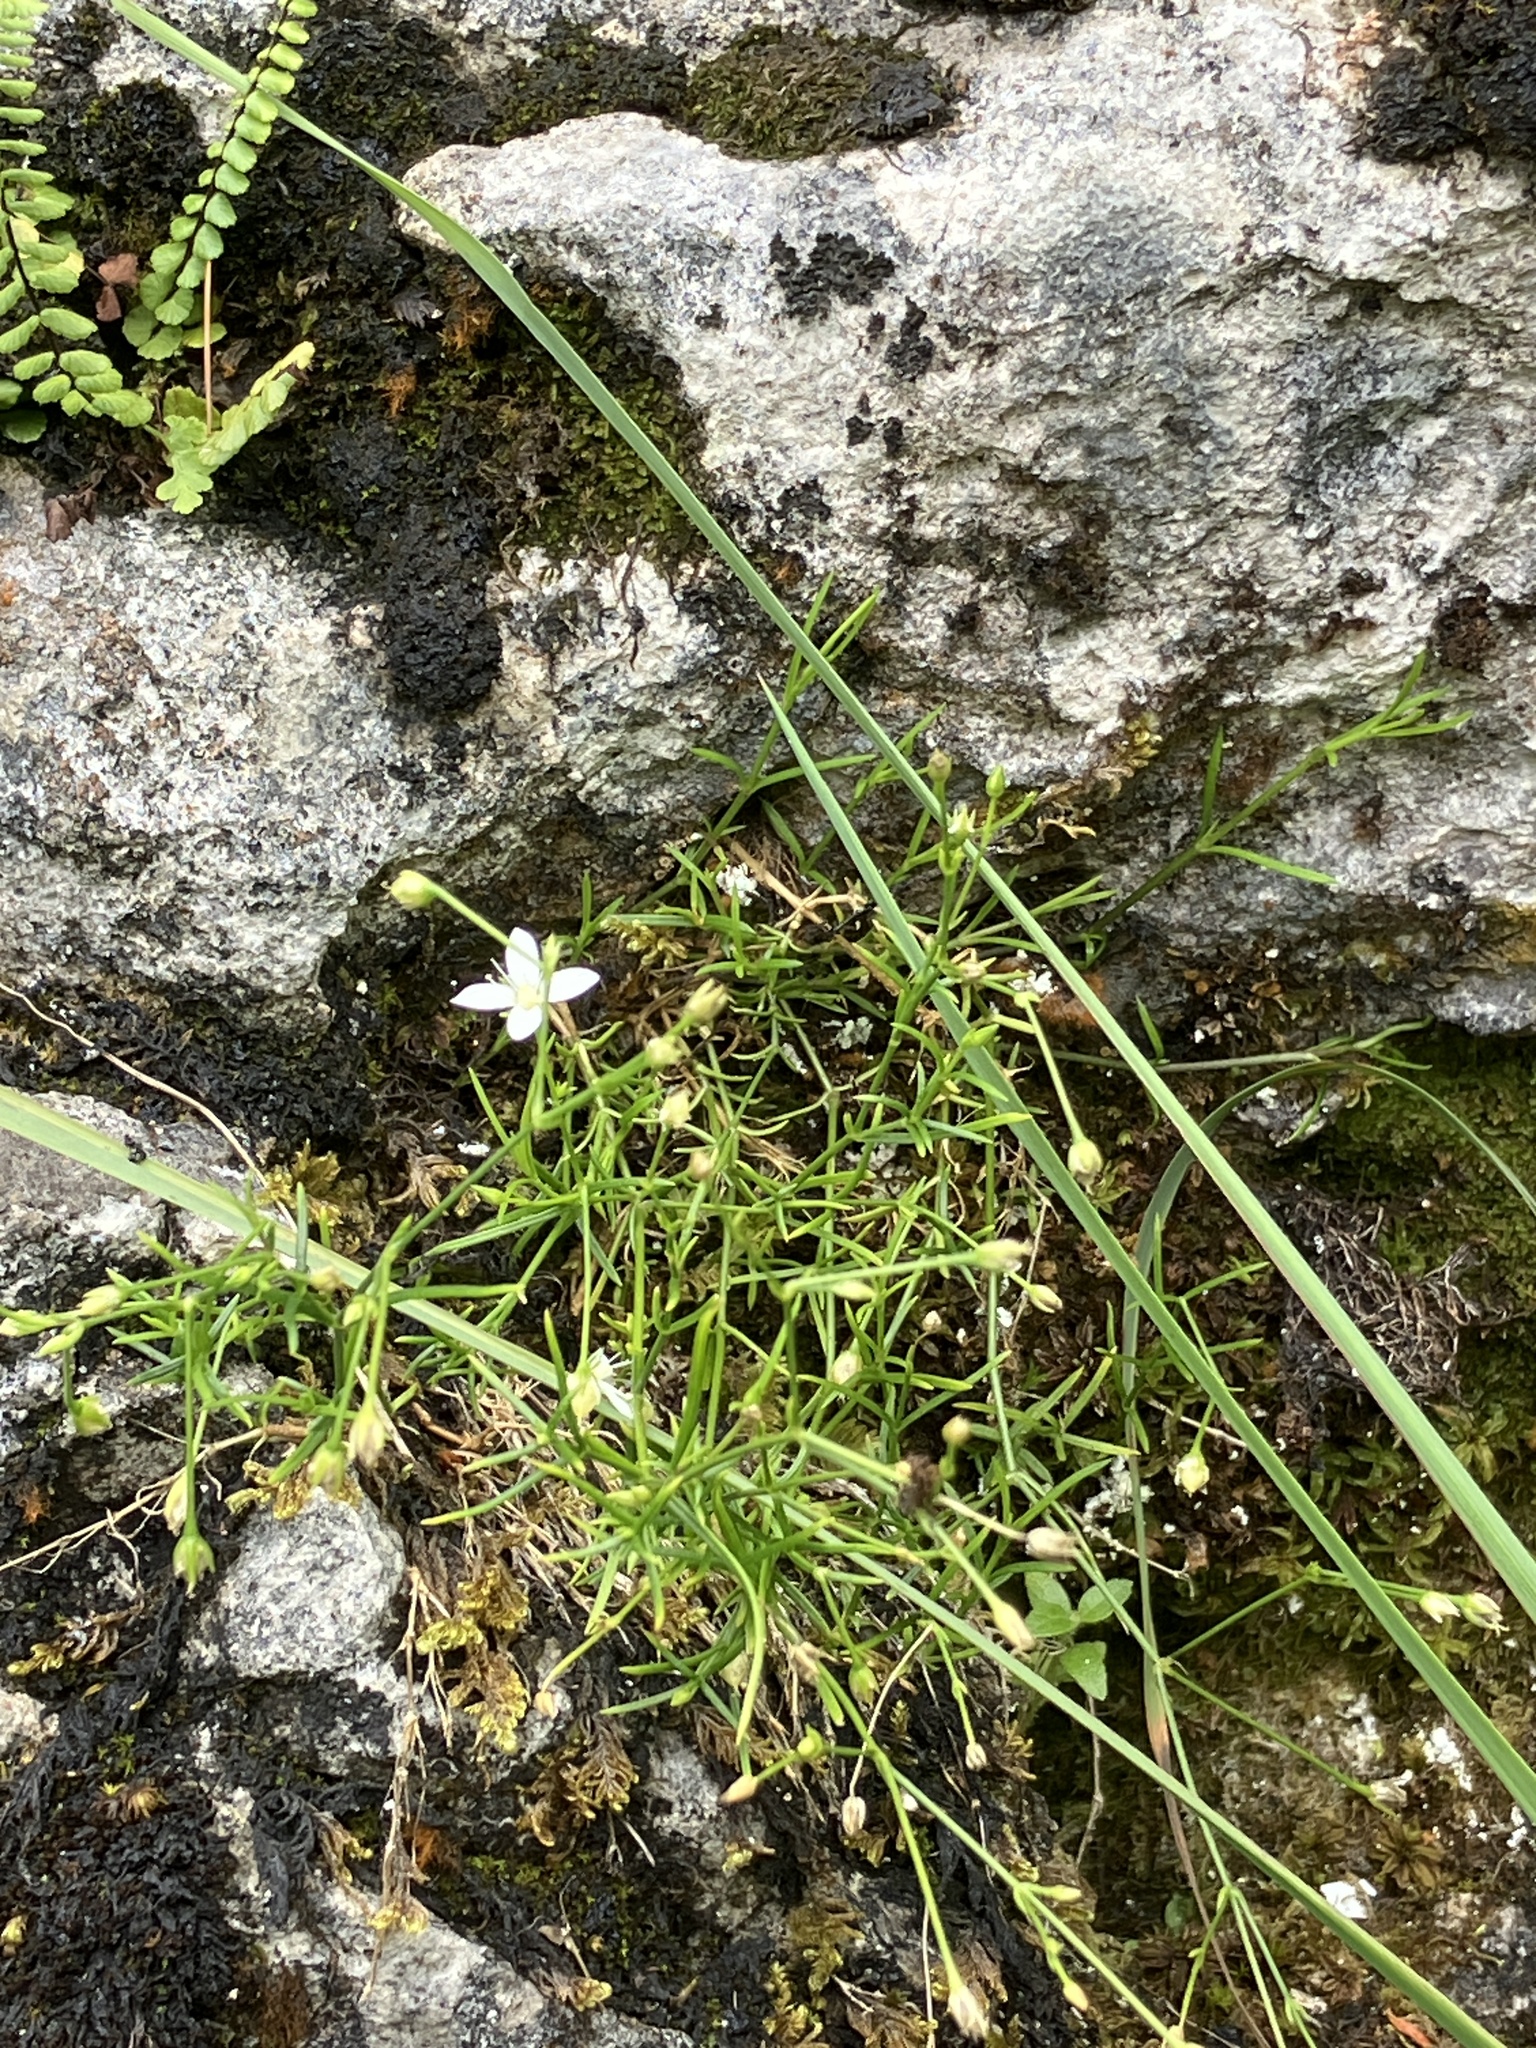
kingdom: Plantae
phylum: Tracheophyta
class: Magnoliopsida
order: Caryophyllales
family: Caryophyllaceae
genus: Moehringia
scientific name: Moehringia muscosa
